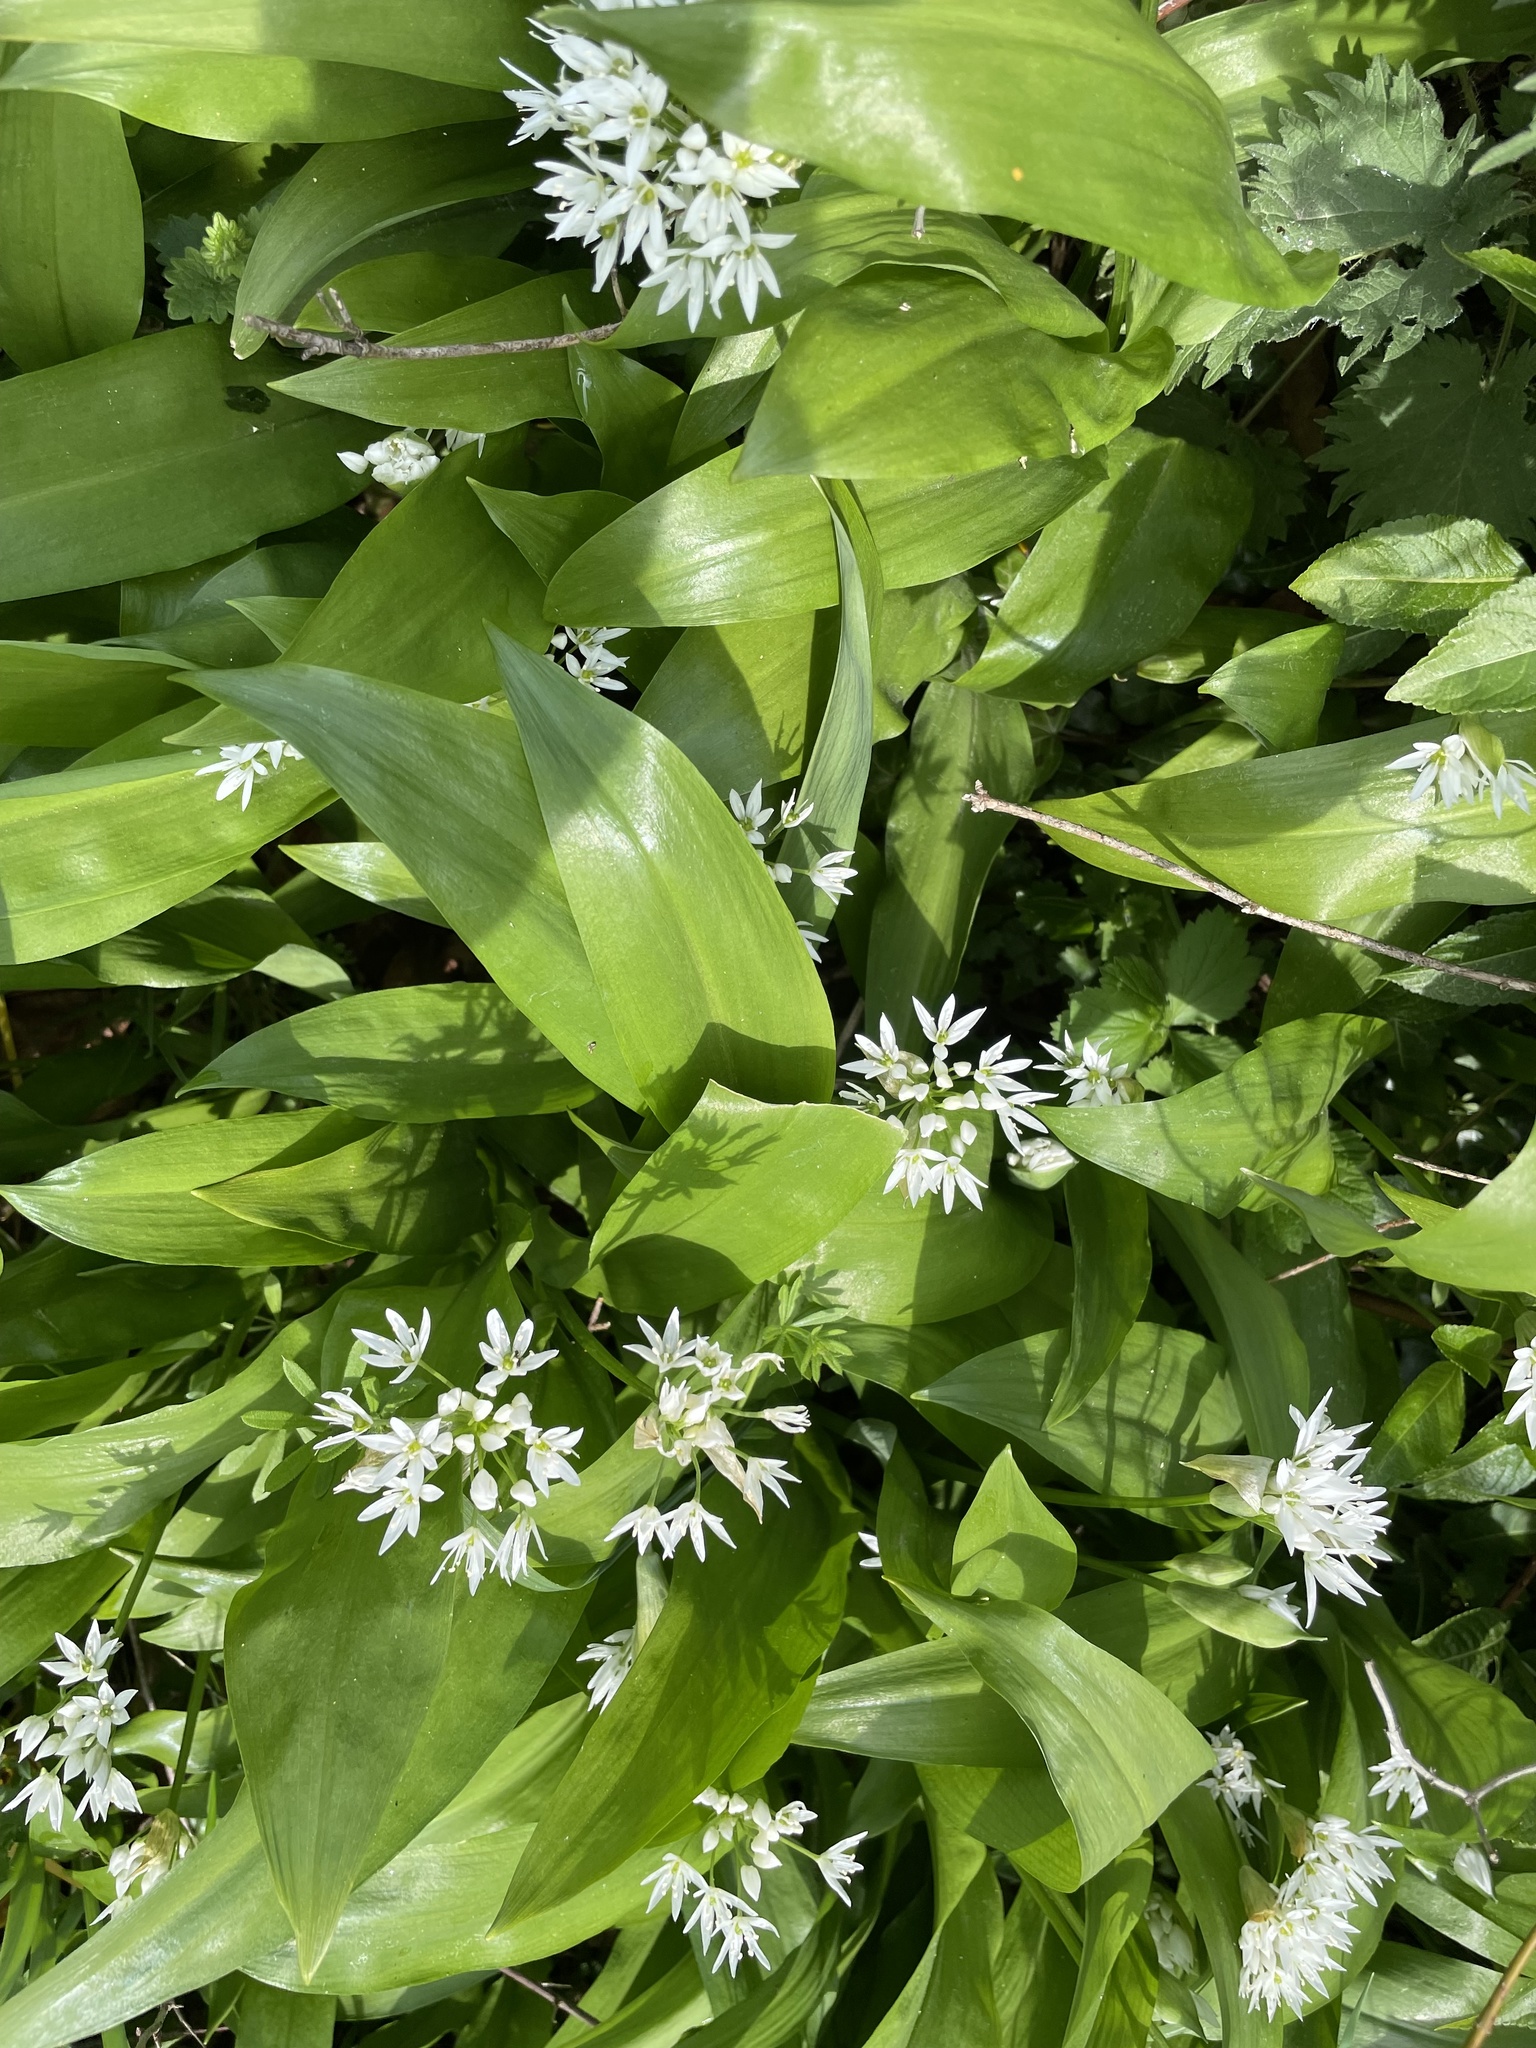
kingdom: Plantae
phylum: Tracheophyta
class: Liliopsida
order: Asparagales
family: Amaryllidaceae
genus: Allium
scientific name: Allium ursinum
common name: Ramsons
